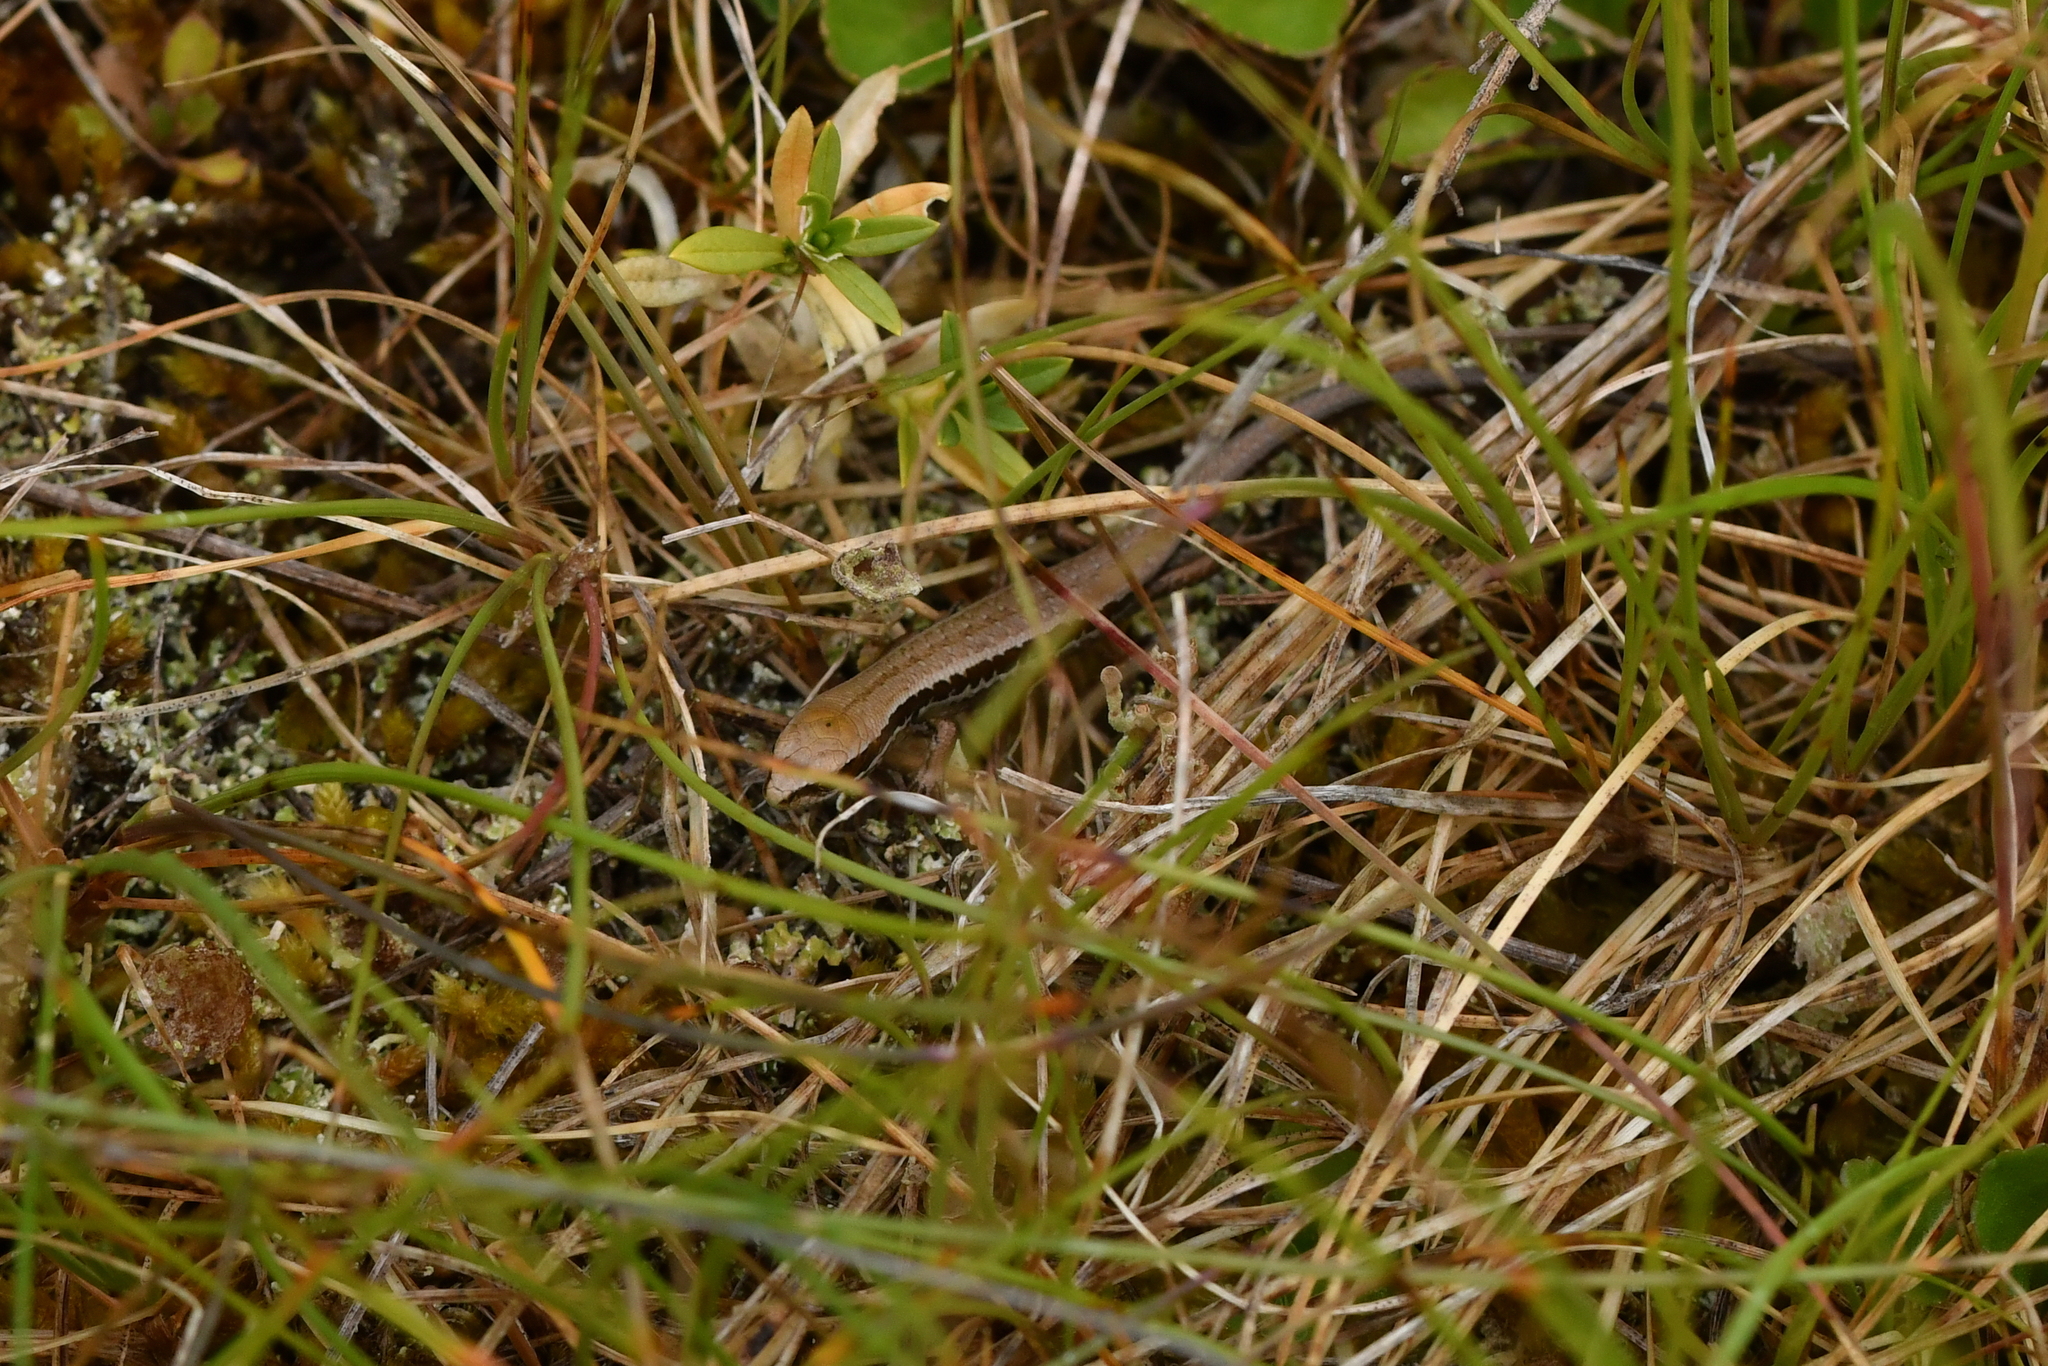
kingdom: Animalia
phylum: Chordata
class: Squamata
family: Scincidae
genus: Oligosoma
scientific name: Oligosoma polychroma
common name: Common new zealand skink
